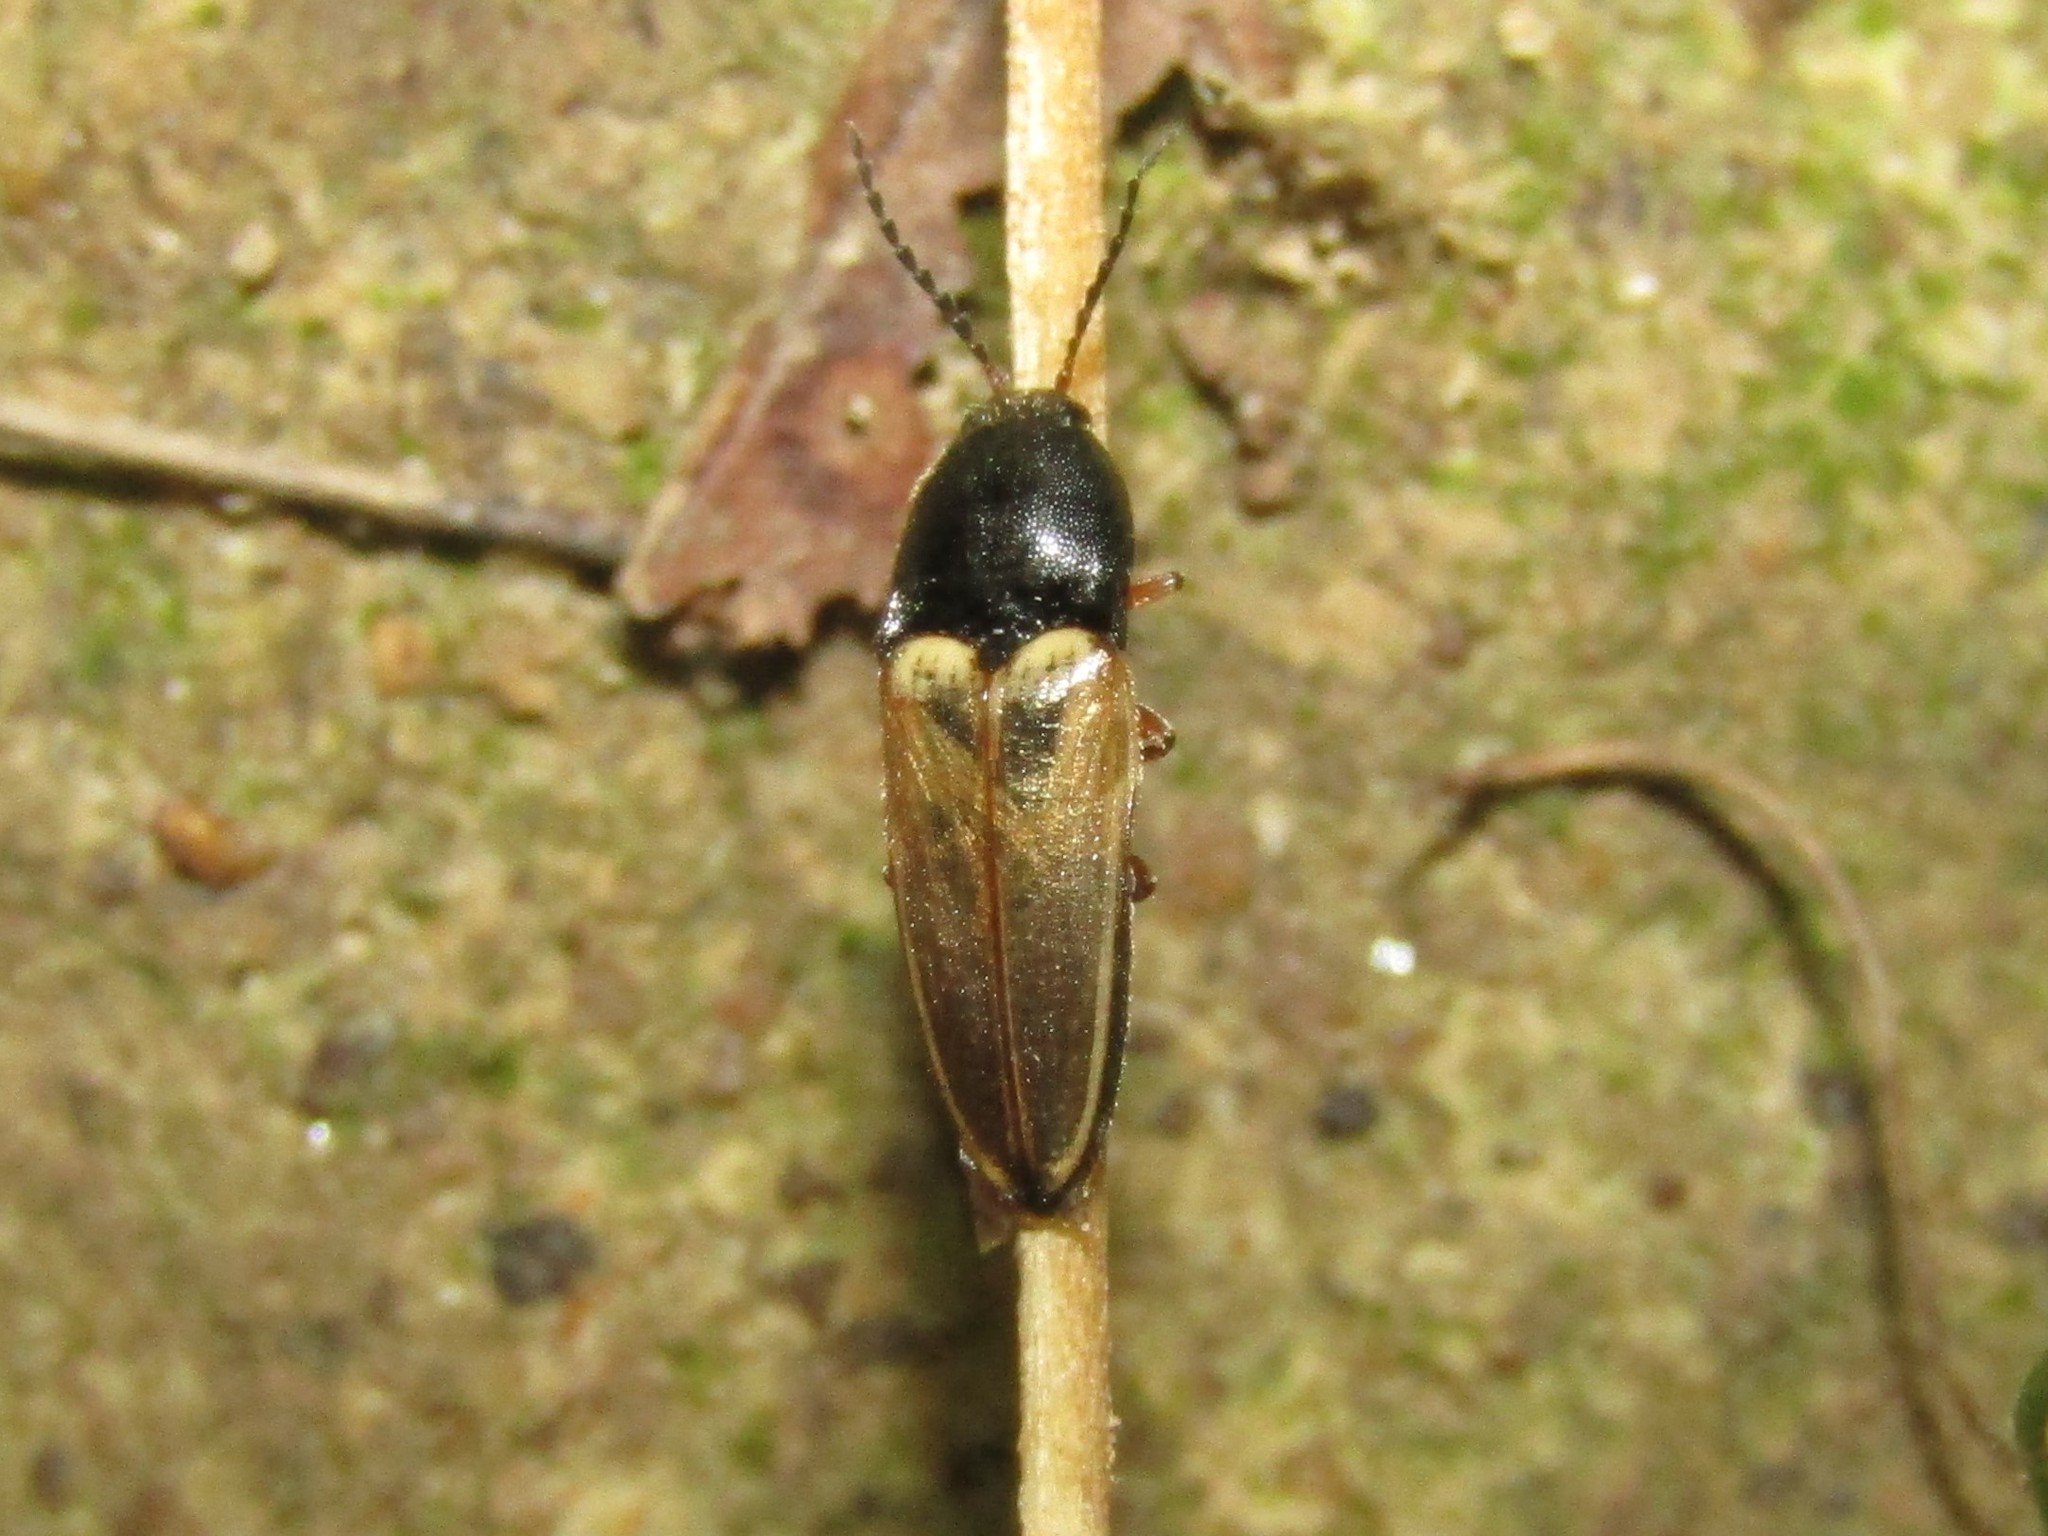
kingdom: Animalia
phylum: Arthropoda
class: Insecta
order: Coleoptera
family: Elateridae
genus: Ampedus
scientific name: Ampedus nigricollis
